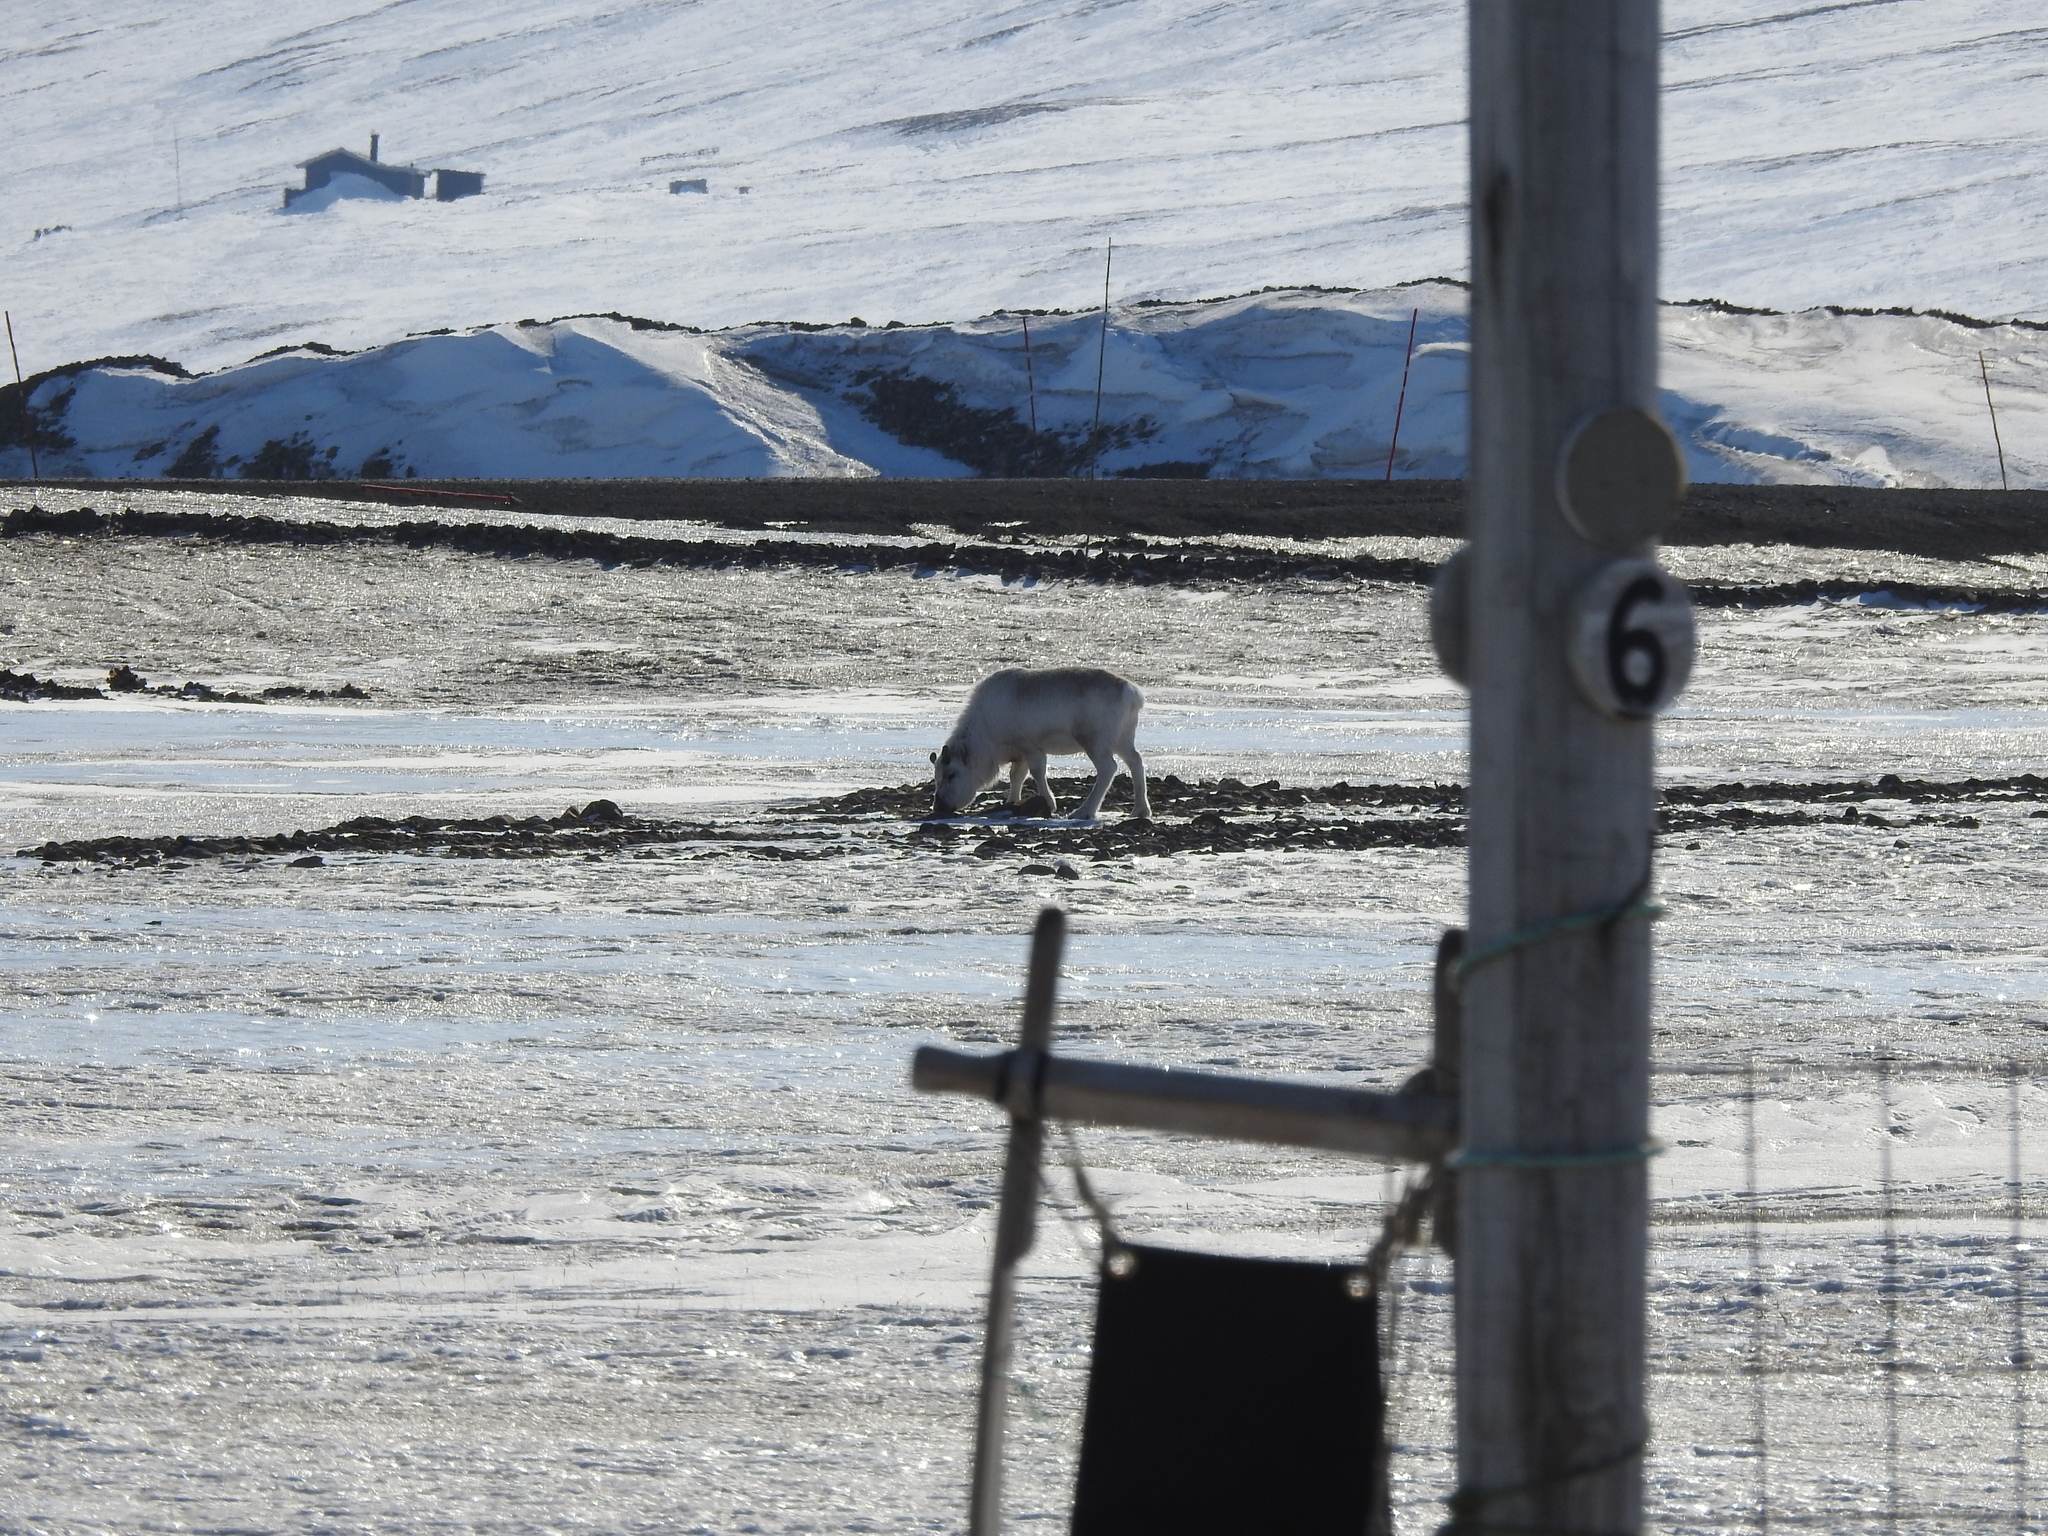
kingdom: Animalia
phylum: Chordata
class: Mammalia
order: Artiodactyla
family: Cervidae
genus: Rangifer
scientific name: Rangifer tarandus
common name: Reindeer
